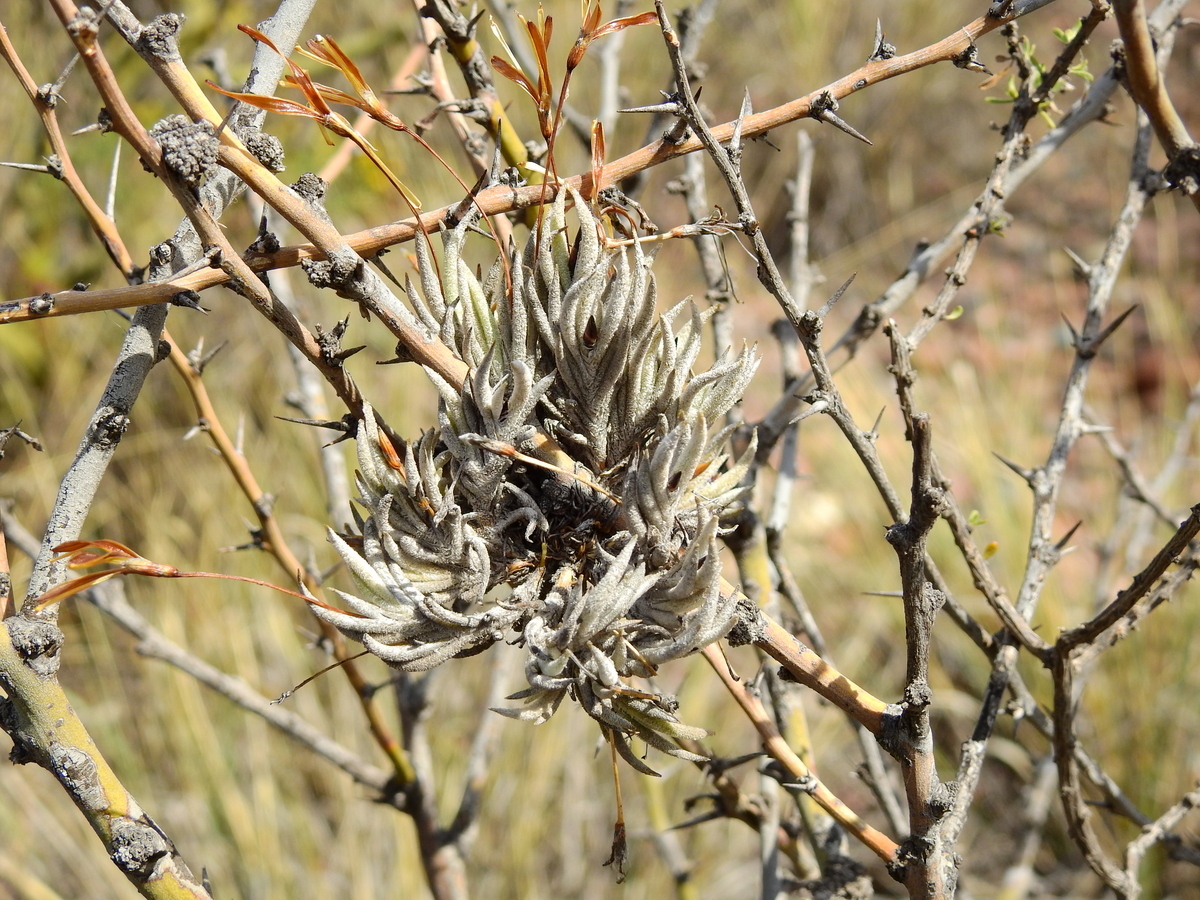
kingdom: Plantae
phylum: Tracheophyta
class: Liliopsida
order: Poales
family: Bromeliaceae
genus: Tillandsia
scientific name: Tillandsia capillaris
